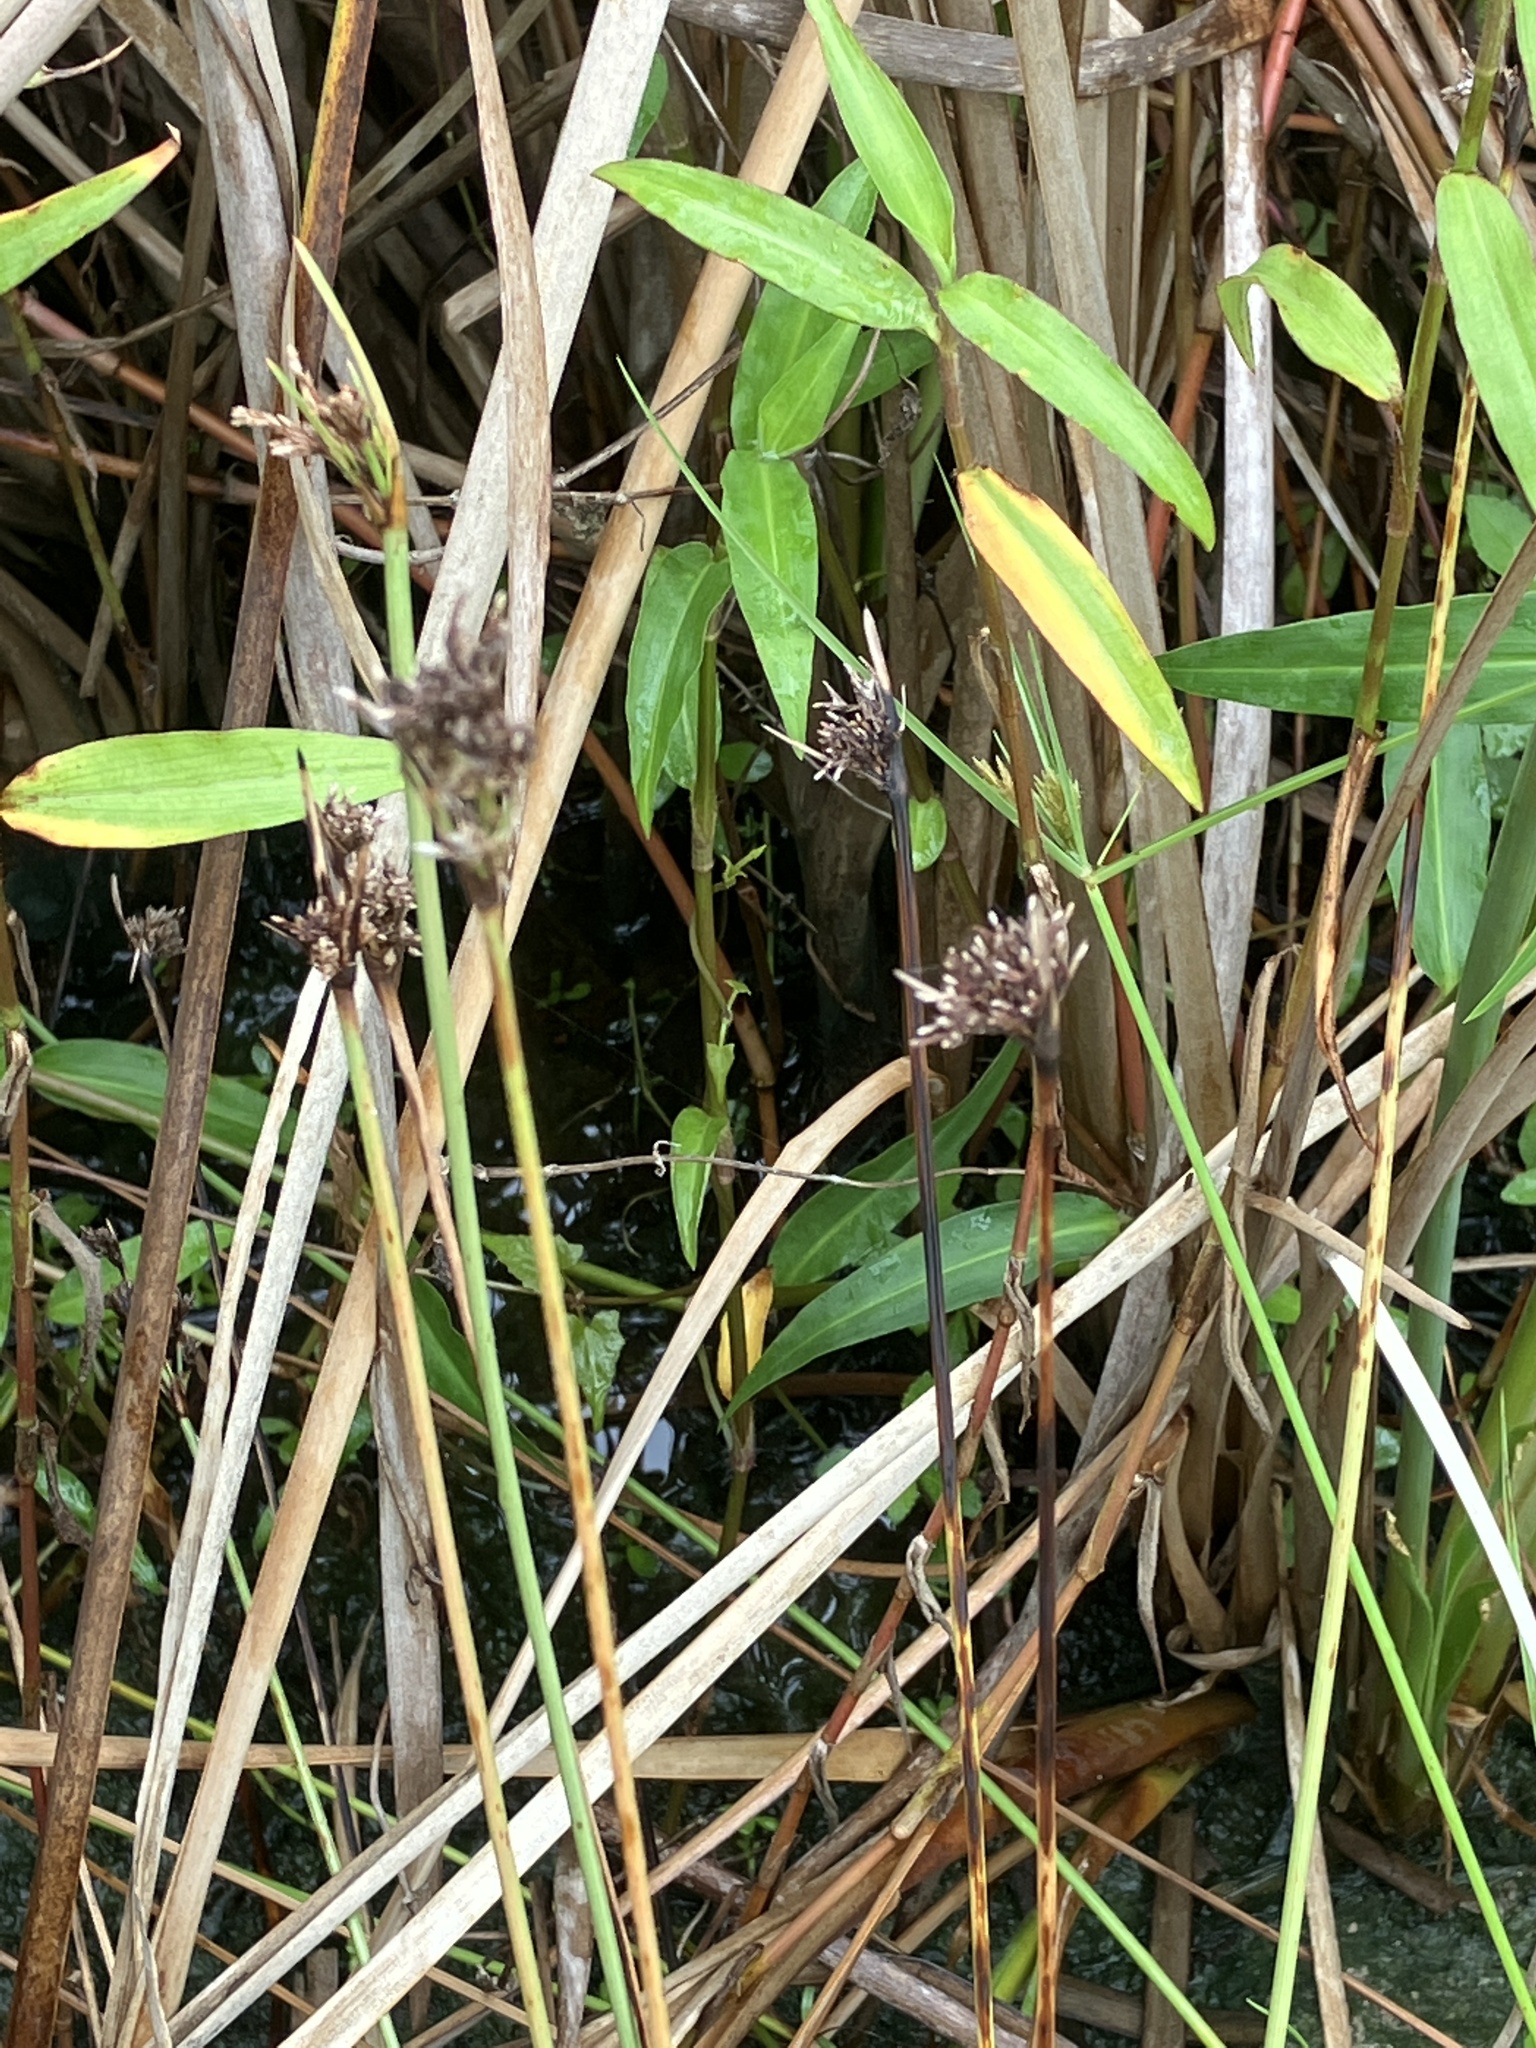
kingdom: Plantae
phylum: Tracheophyta
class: Liliopsida
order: Poales
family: Cyperaceae
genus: Fimbristylis
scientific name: Fimbristylis cymosa
